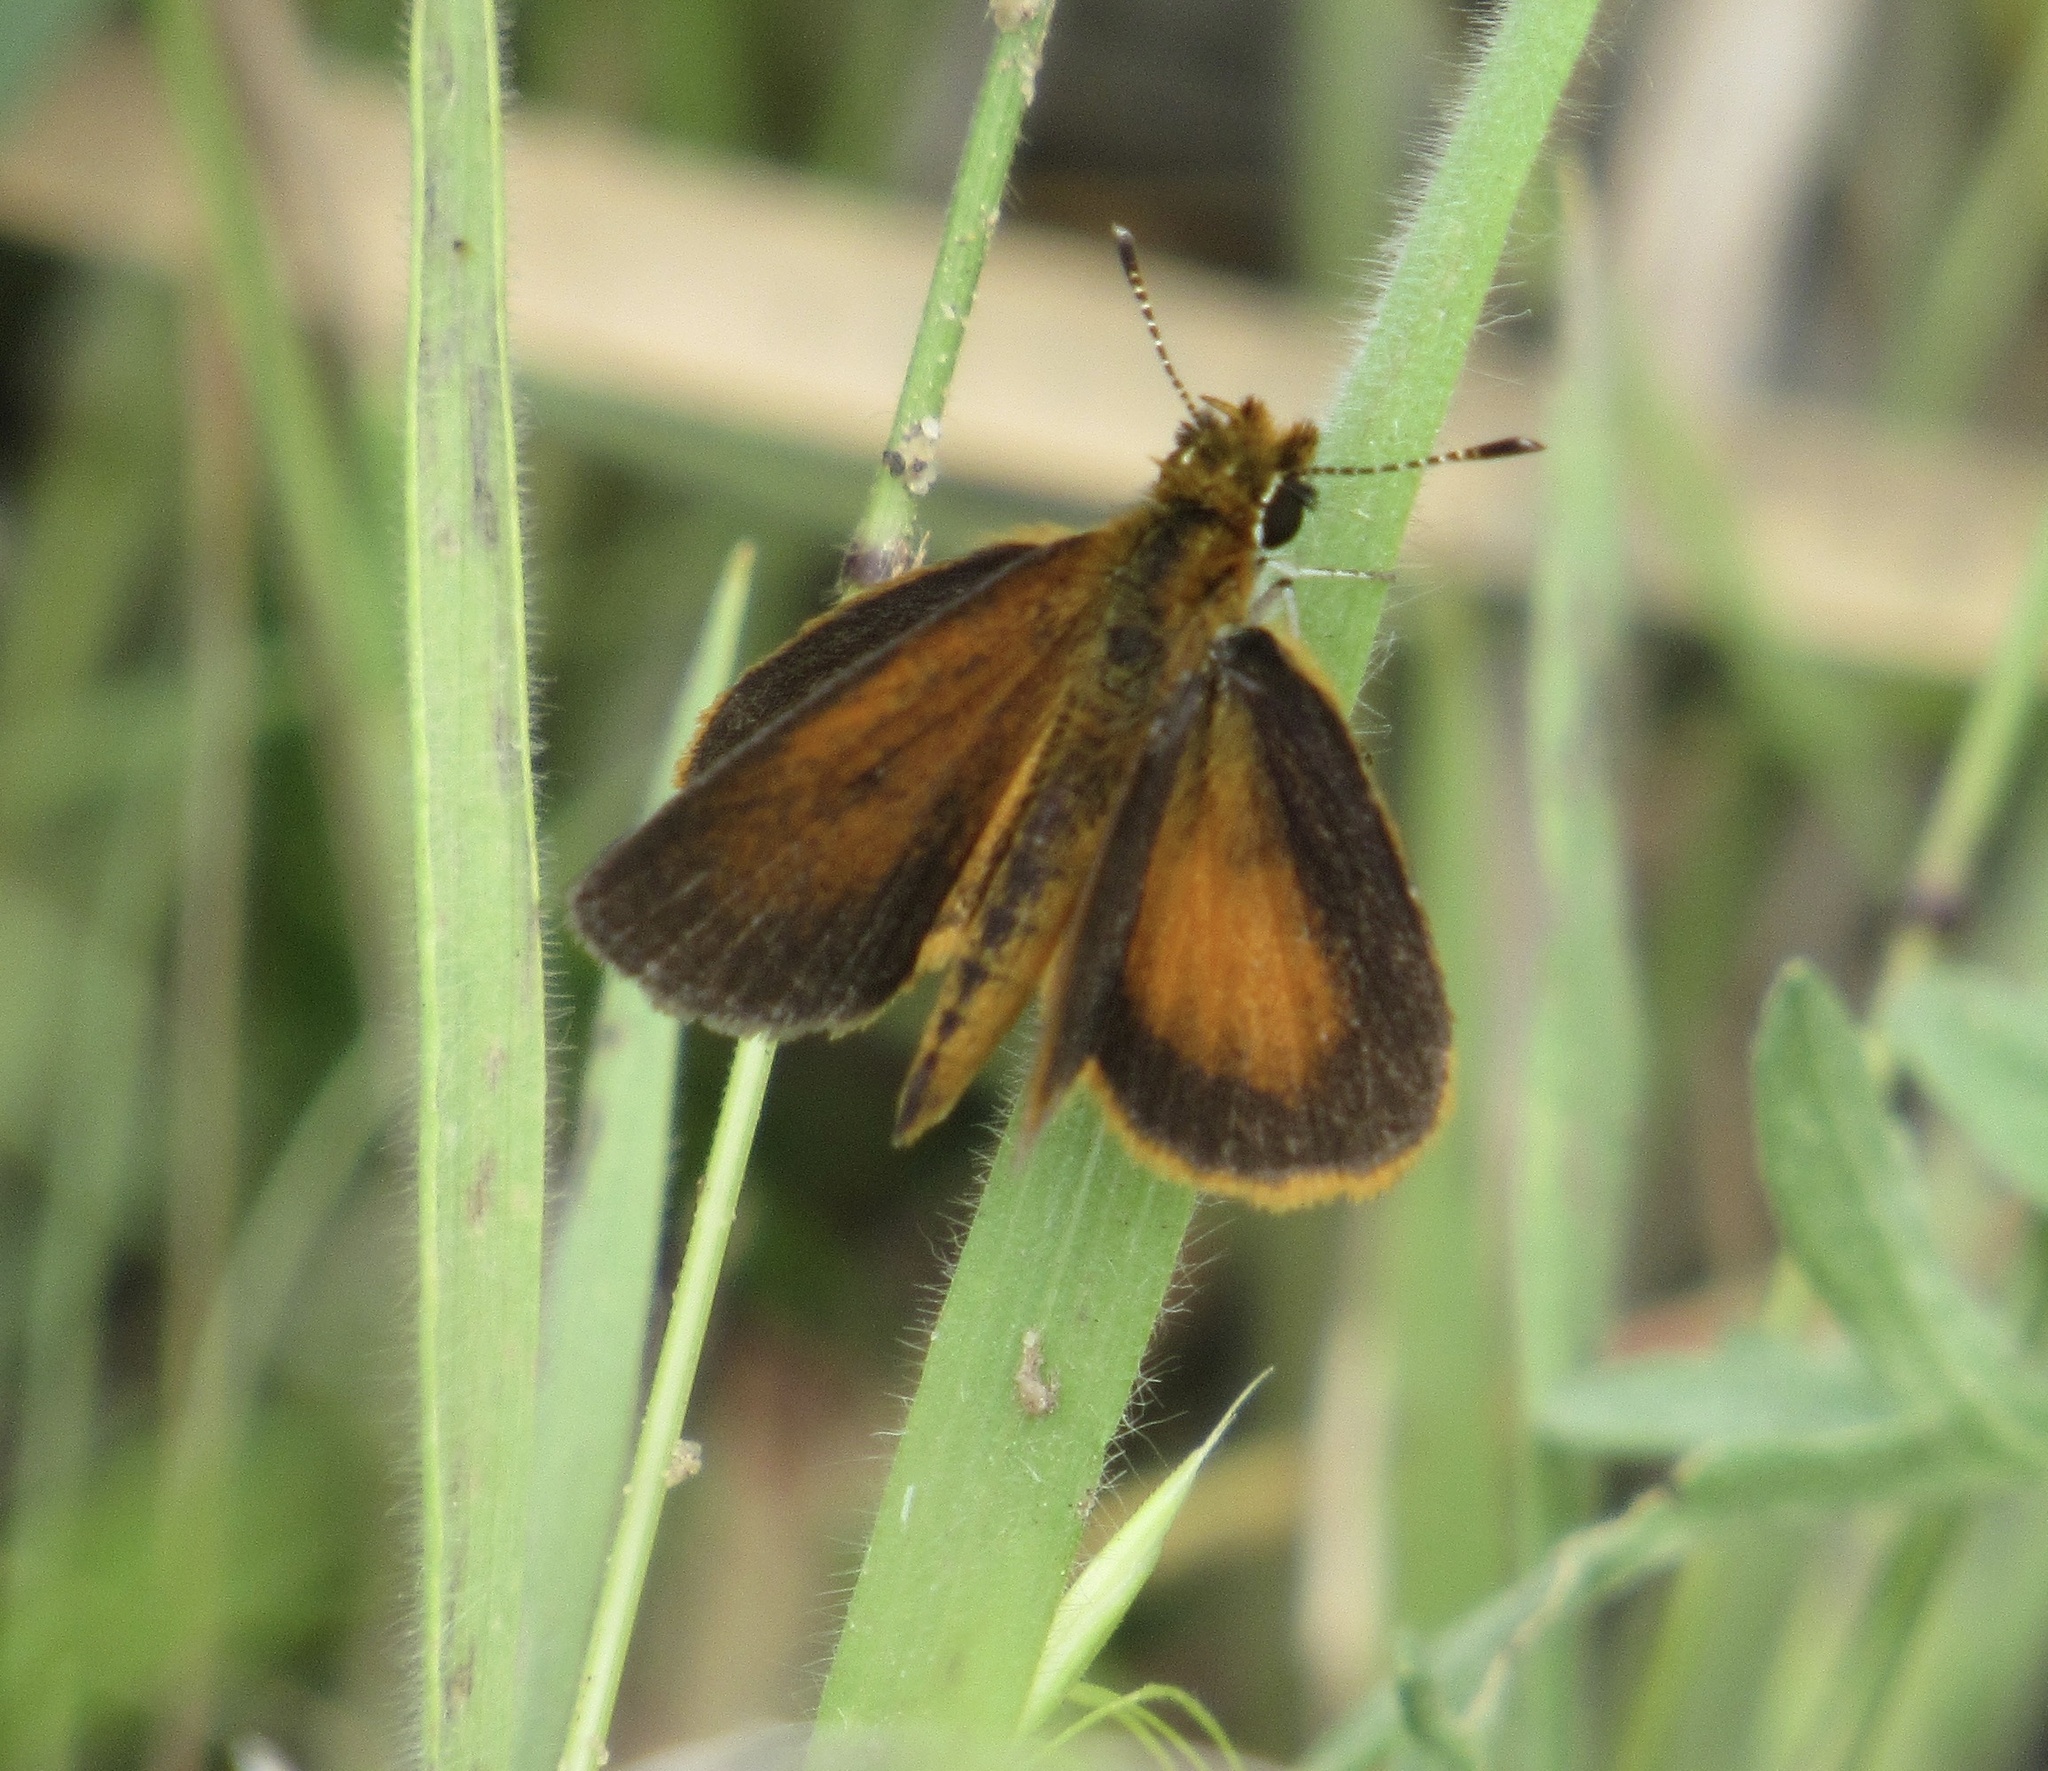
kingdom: Animalia
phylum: Arthropoda
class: Insecta
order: Lepidoptera
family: Hesperiidae
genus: Ancyloxypha
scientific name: Ancyloxypha numitor
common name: Least skipper
